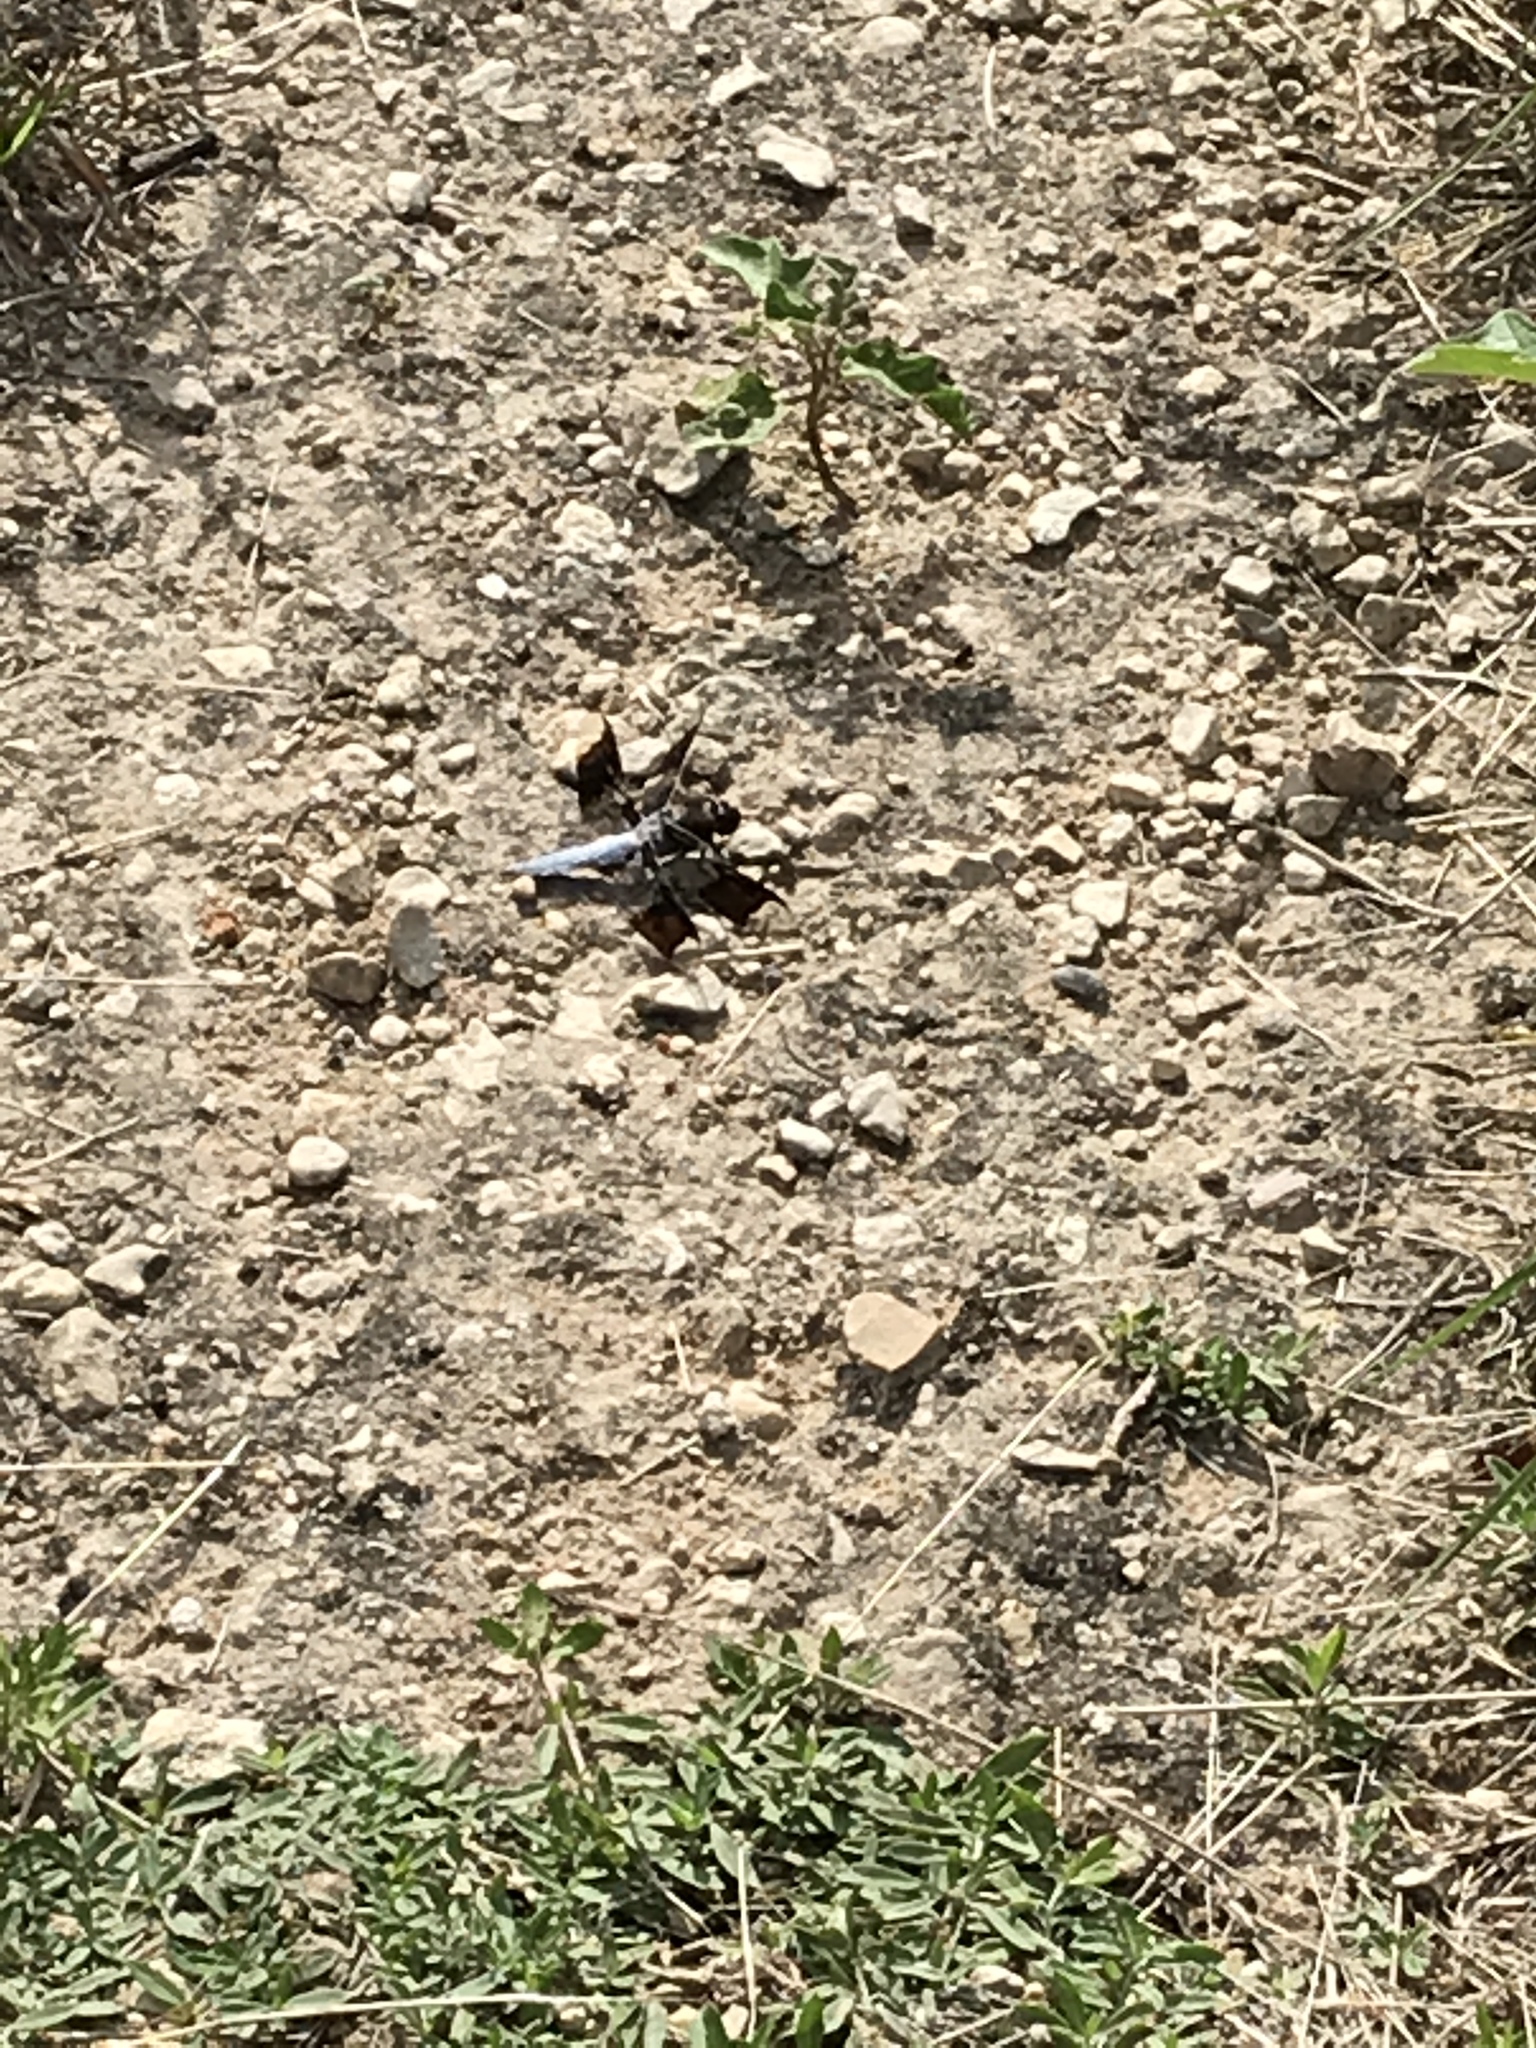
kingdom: Animalia
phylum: Arthropoda
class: Insecta
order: Odonata
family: Libellulidae
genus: Plathemis
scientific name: Plathemis lydia
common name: Common whitetail
